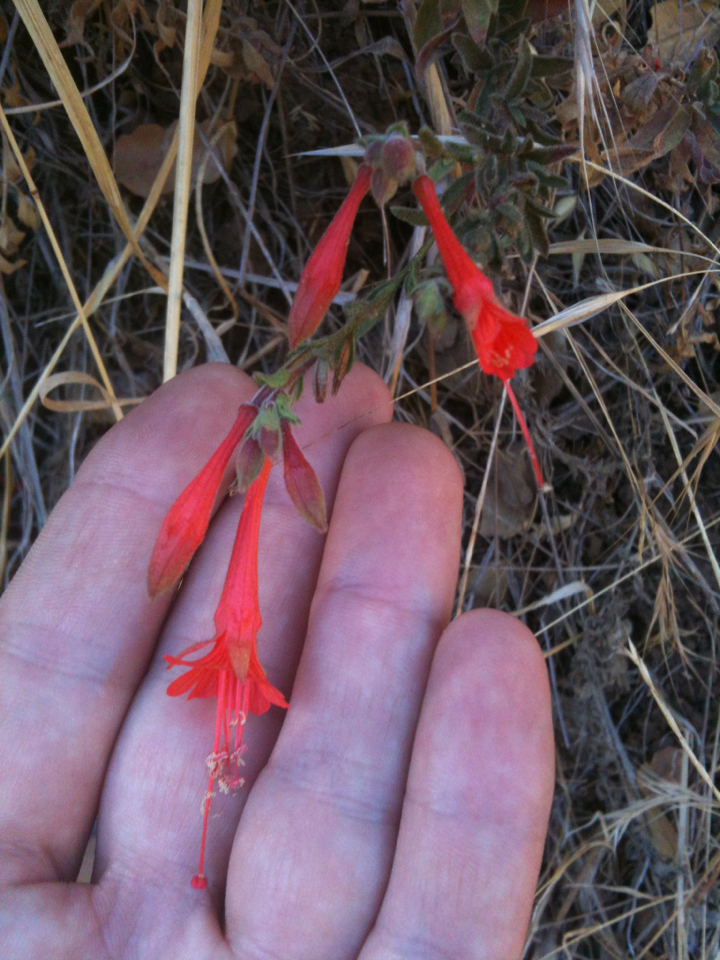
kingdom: Plantae
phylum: Tracheophyta
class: Magnoliopsida
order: Myrtales
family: Onagraceae
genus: Epilobium
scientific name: Epilobium canum
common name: California-fuchsia
